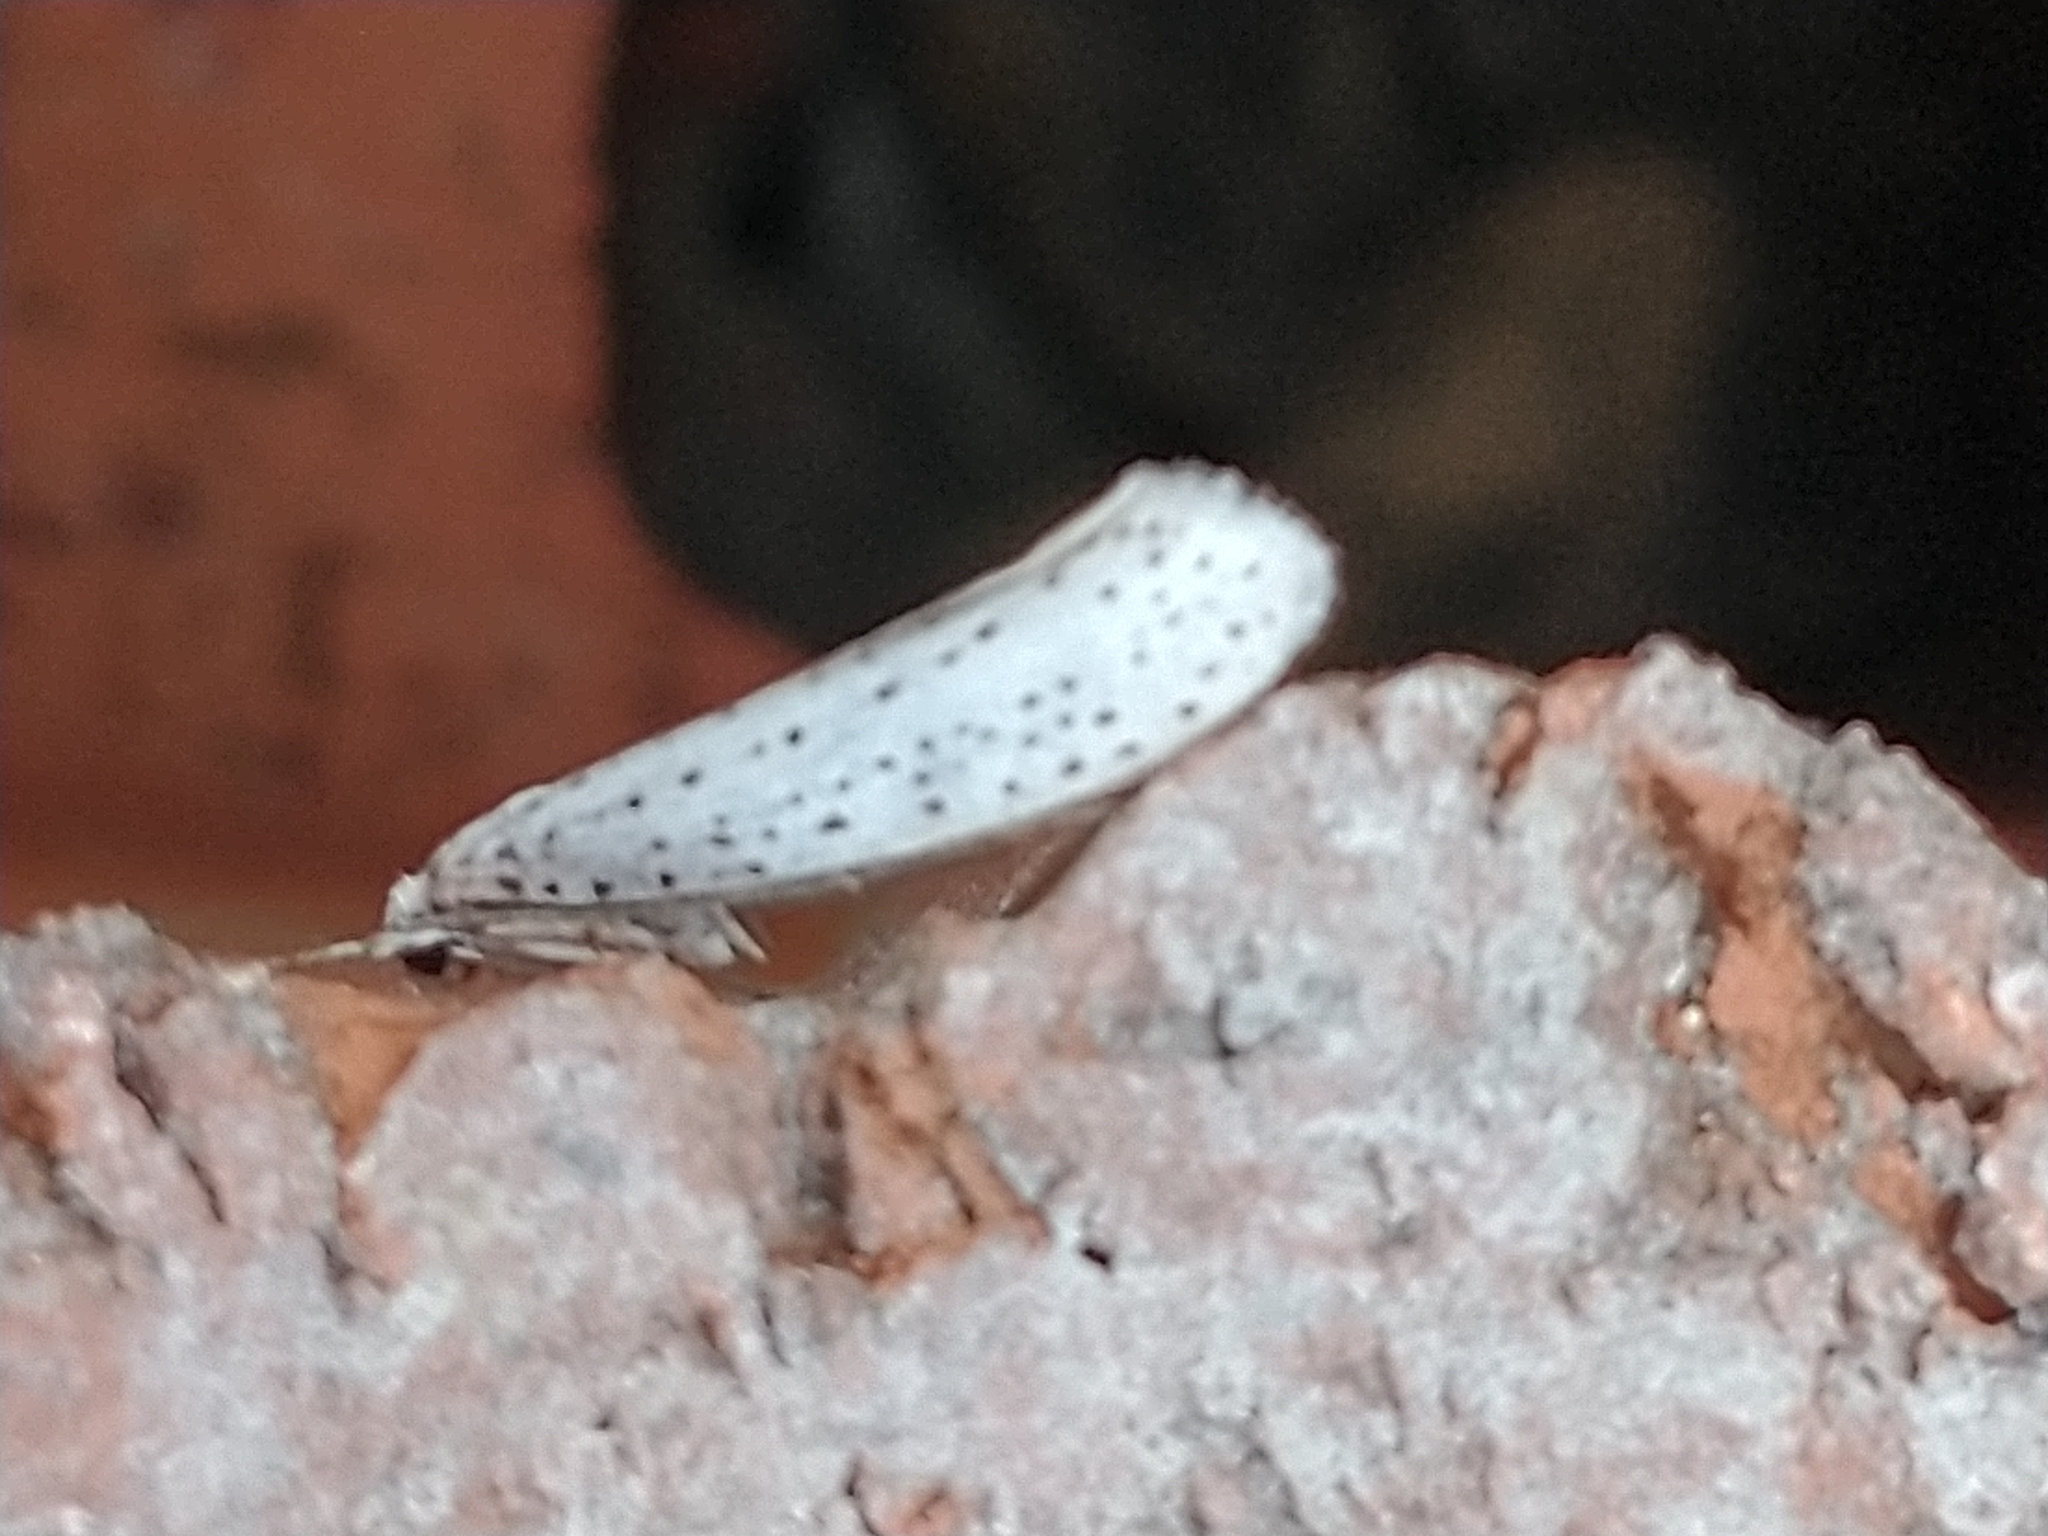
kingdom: Animalia
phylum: Arthropoda
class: Insecta
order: Lepidoptera
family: Yponomeutidae
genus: Yponomeuta
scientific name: Yponomeuta evonymella
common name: Bird-cherry ermine
